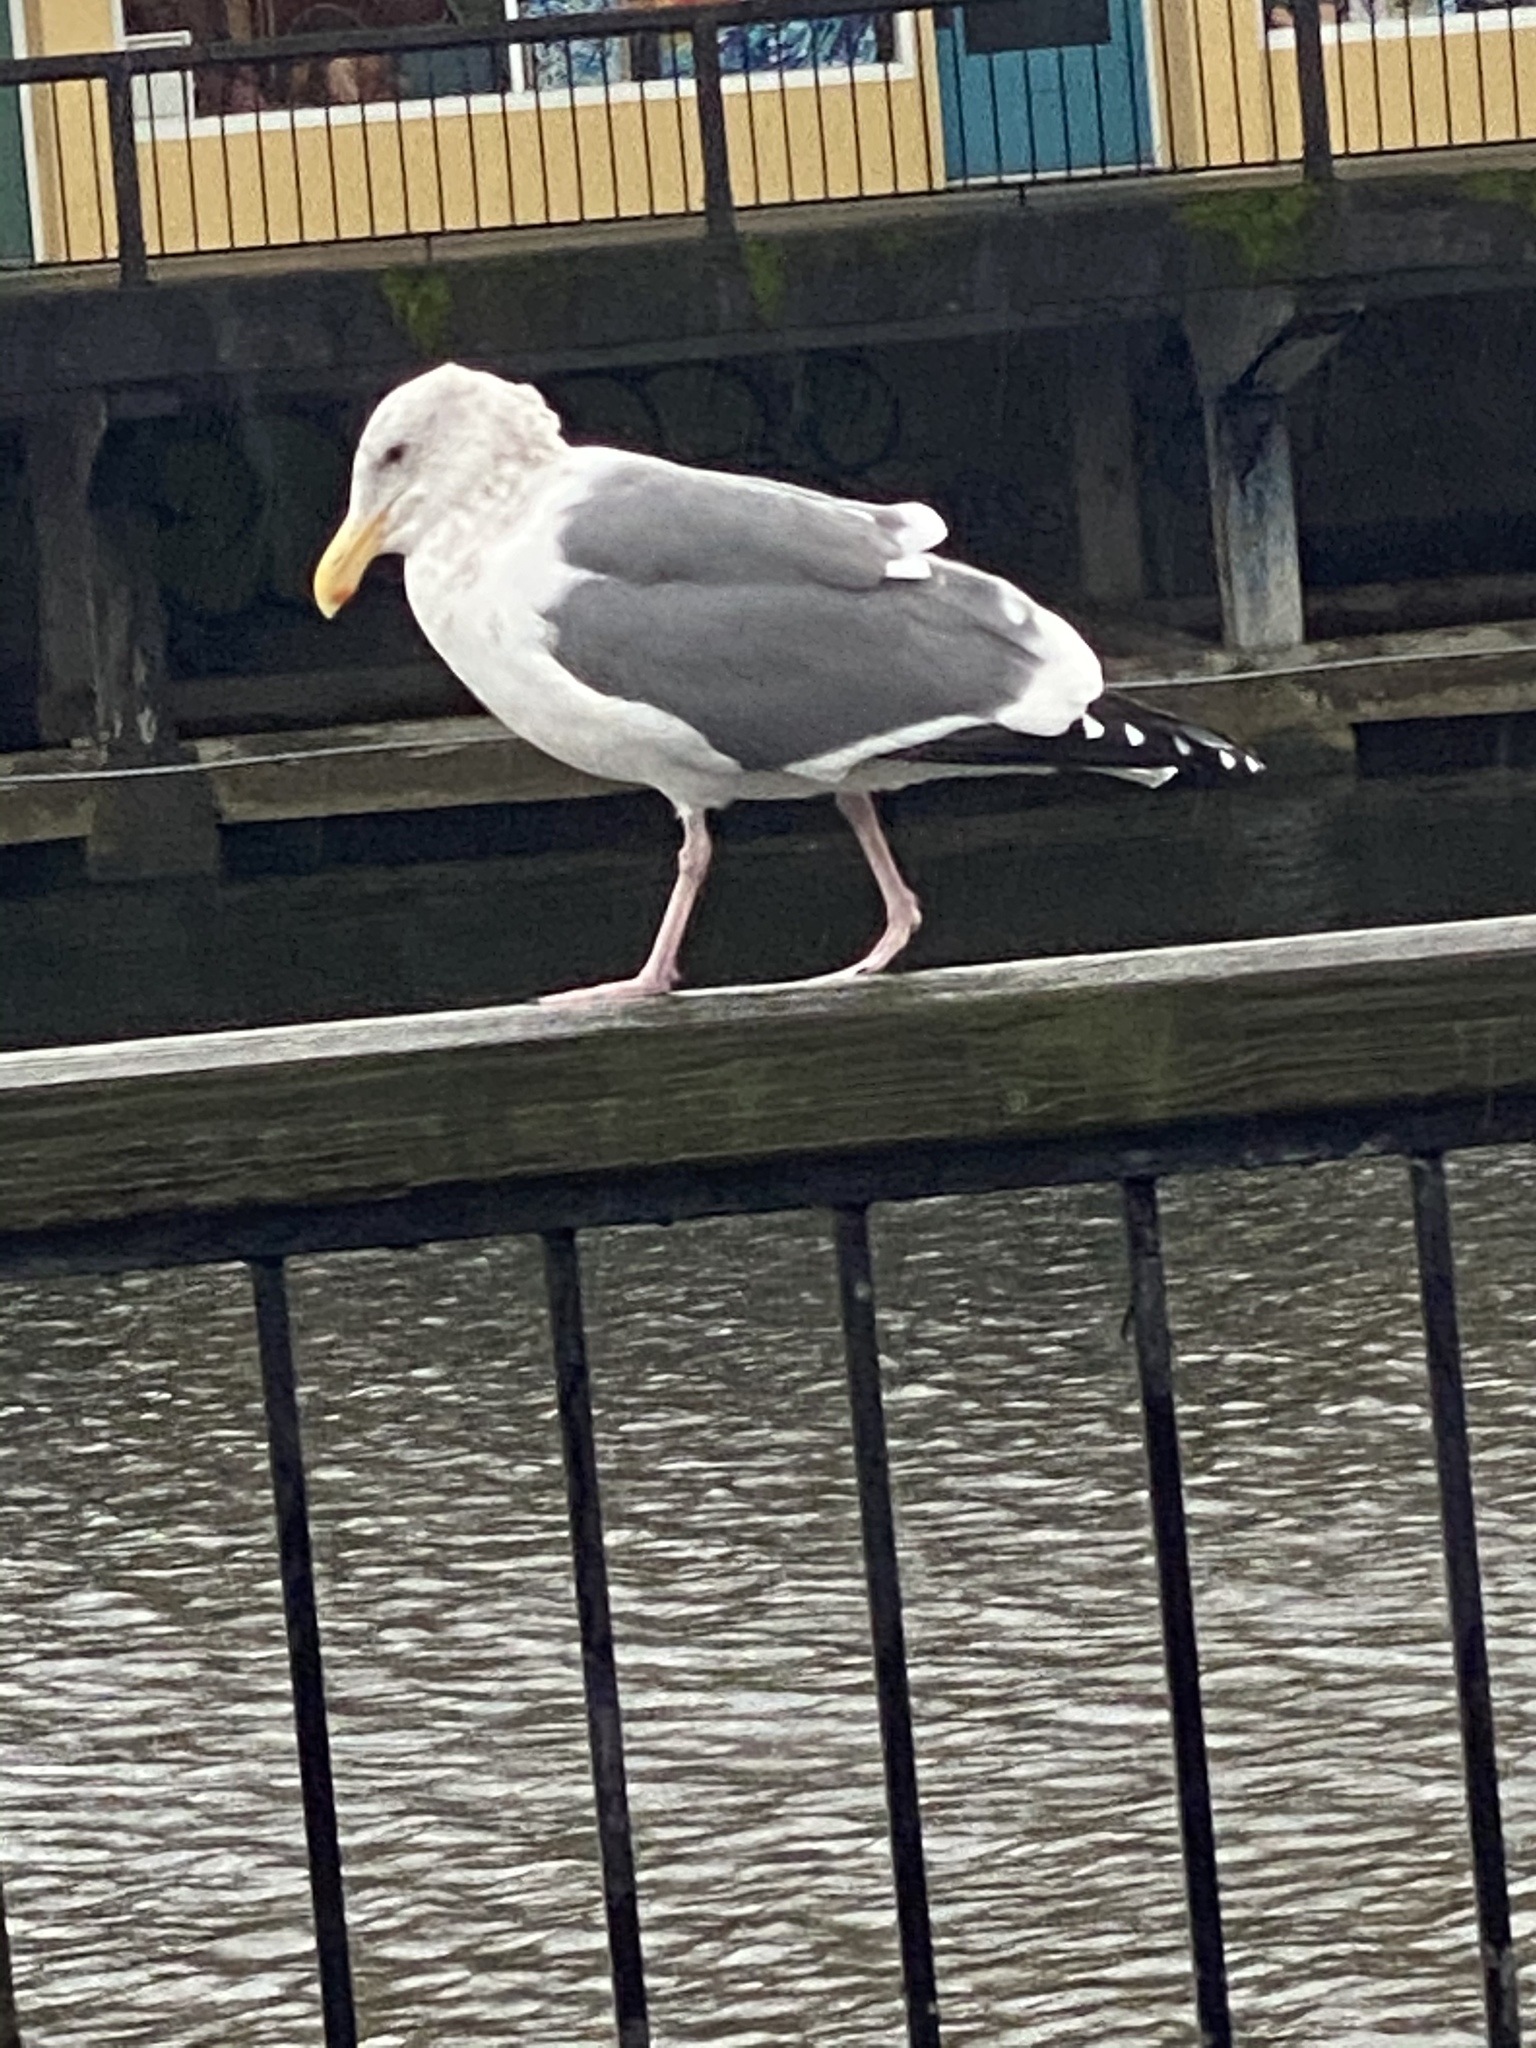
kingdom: Animalia
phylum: Chordata
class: Aves
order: Charadriiformes
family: Laridae
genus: Larus
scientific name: Larus
